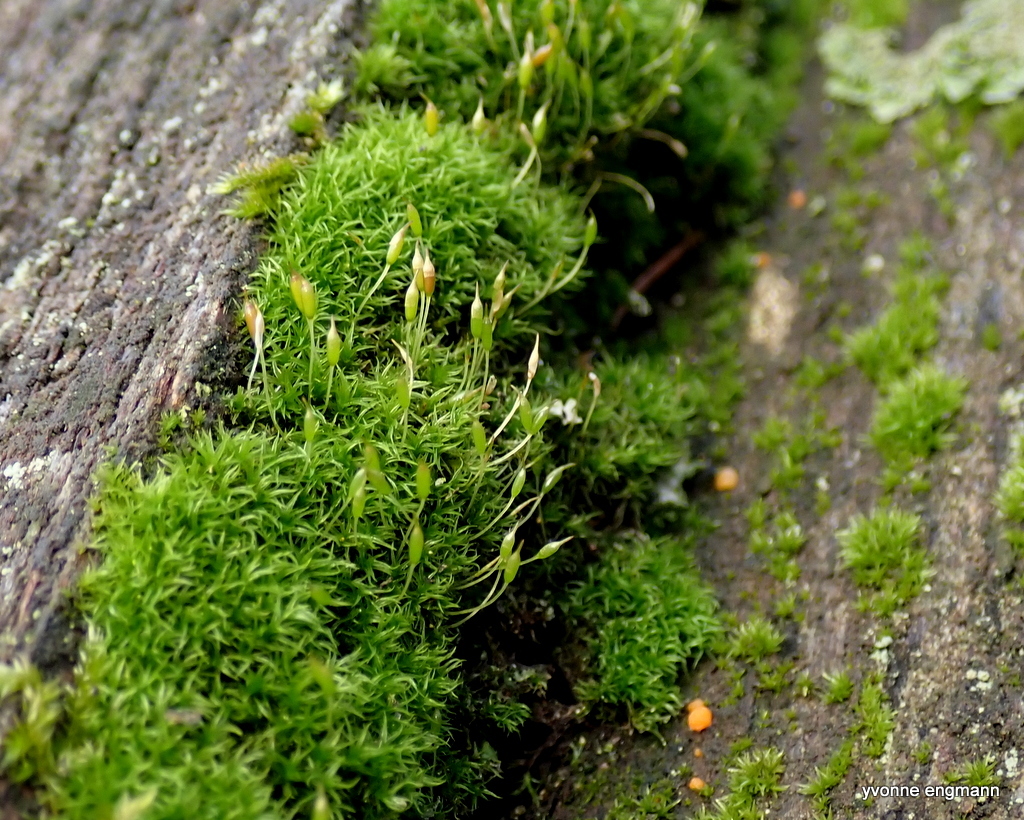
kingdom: Plantae
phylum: Bryophyta
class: Bryopsida
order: Dicranales
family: Rhabdoweisiaceae
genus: Dicranoweisia
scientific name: Dicranoweisia cirrata
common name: Common pincushion
